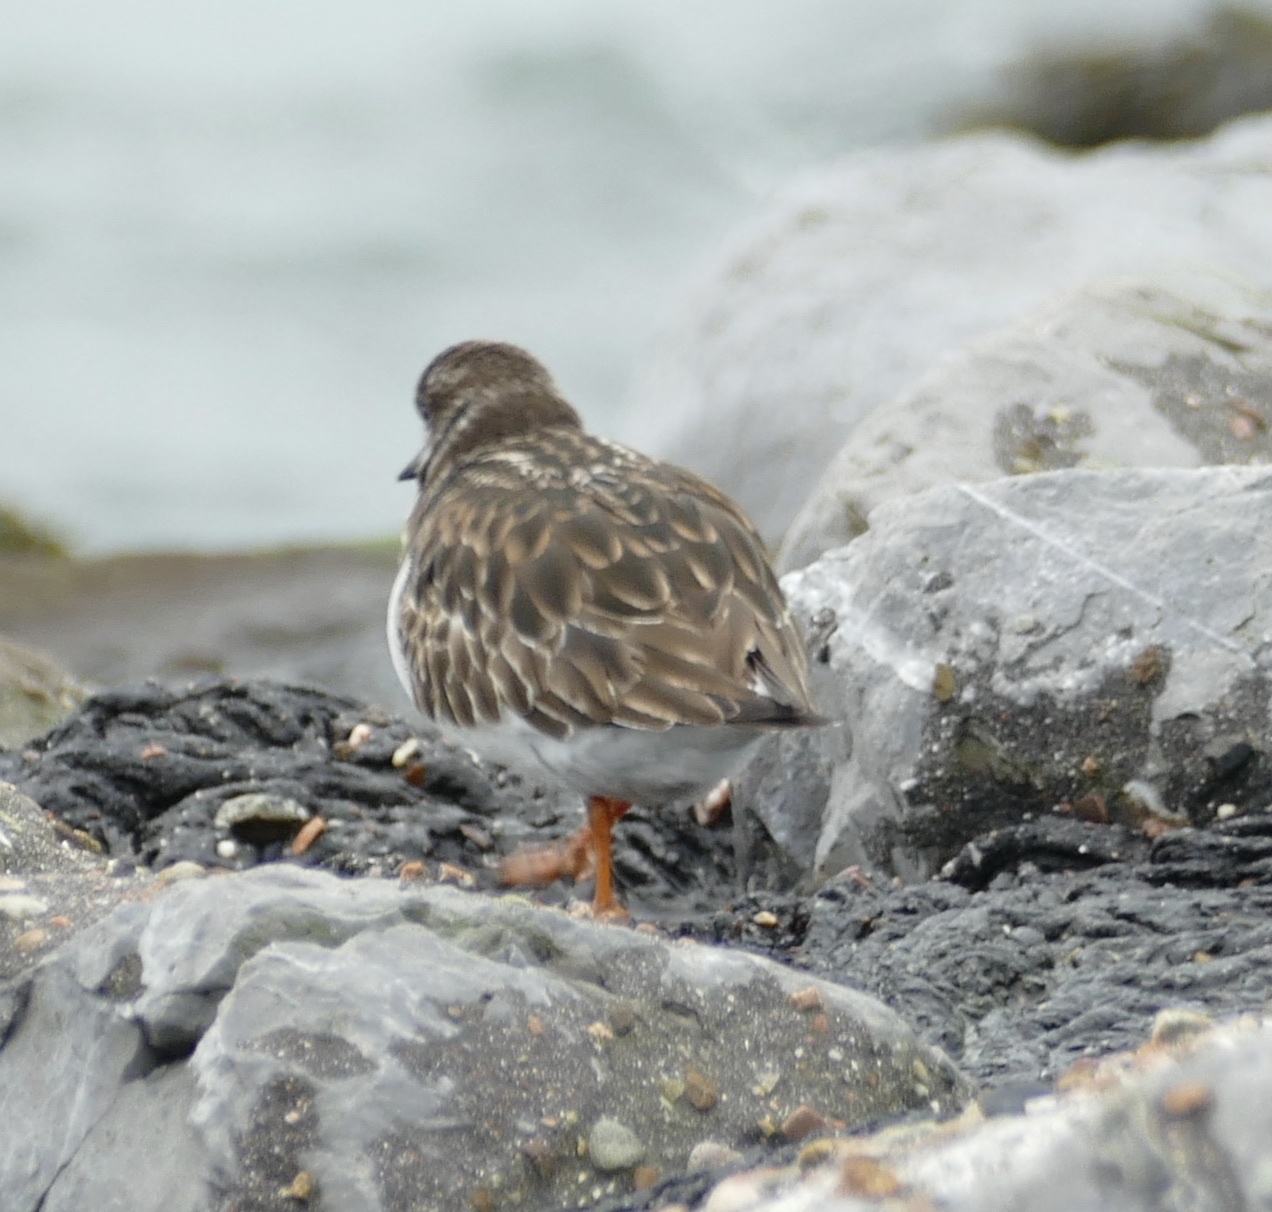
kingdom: Animalia
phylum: Chordata
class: Aves
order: Charadriiformes
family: Scolopacidae
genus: Arenaria
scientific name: Arenaria interpres
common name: Ruddy turnstone
